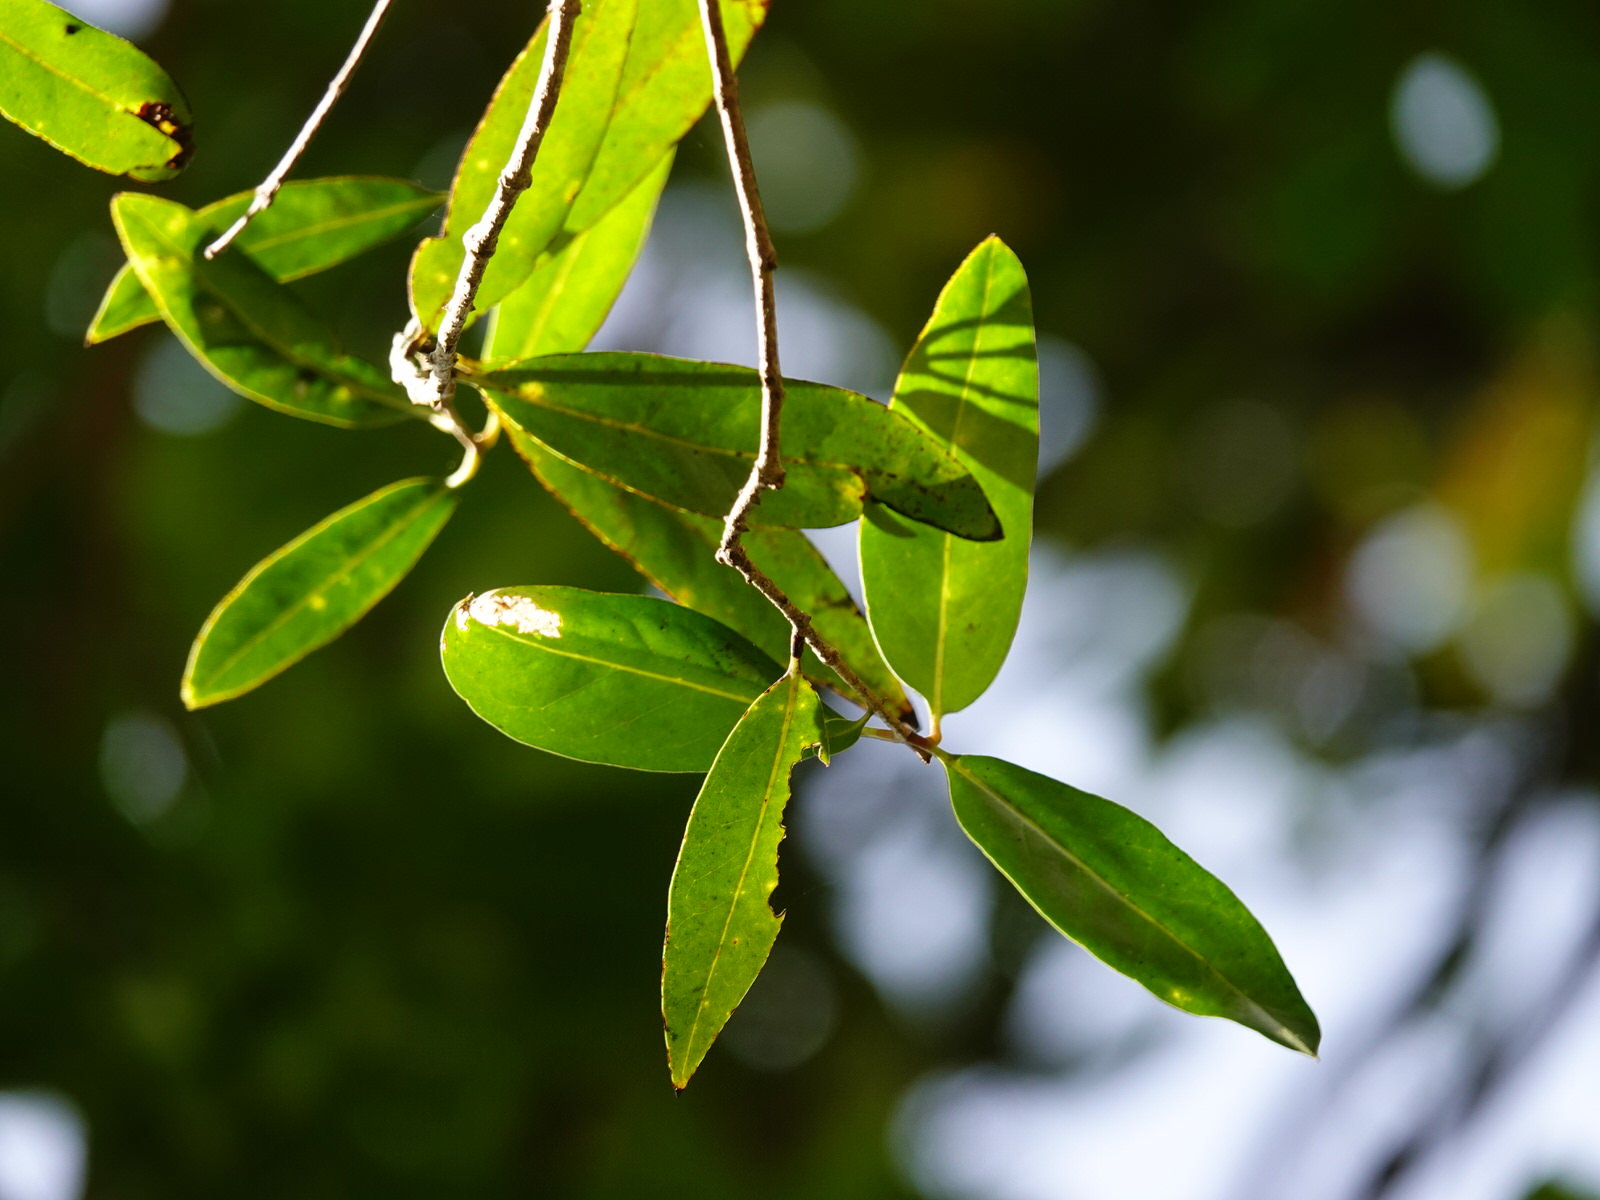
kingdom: Plantae
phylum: Tracheophyta
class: Magnoliopsida
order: Lamiales
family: Oleaceae
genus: Nestegis
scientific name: Nestegis lanceolata
